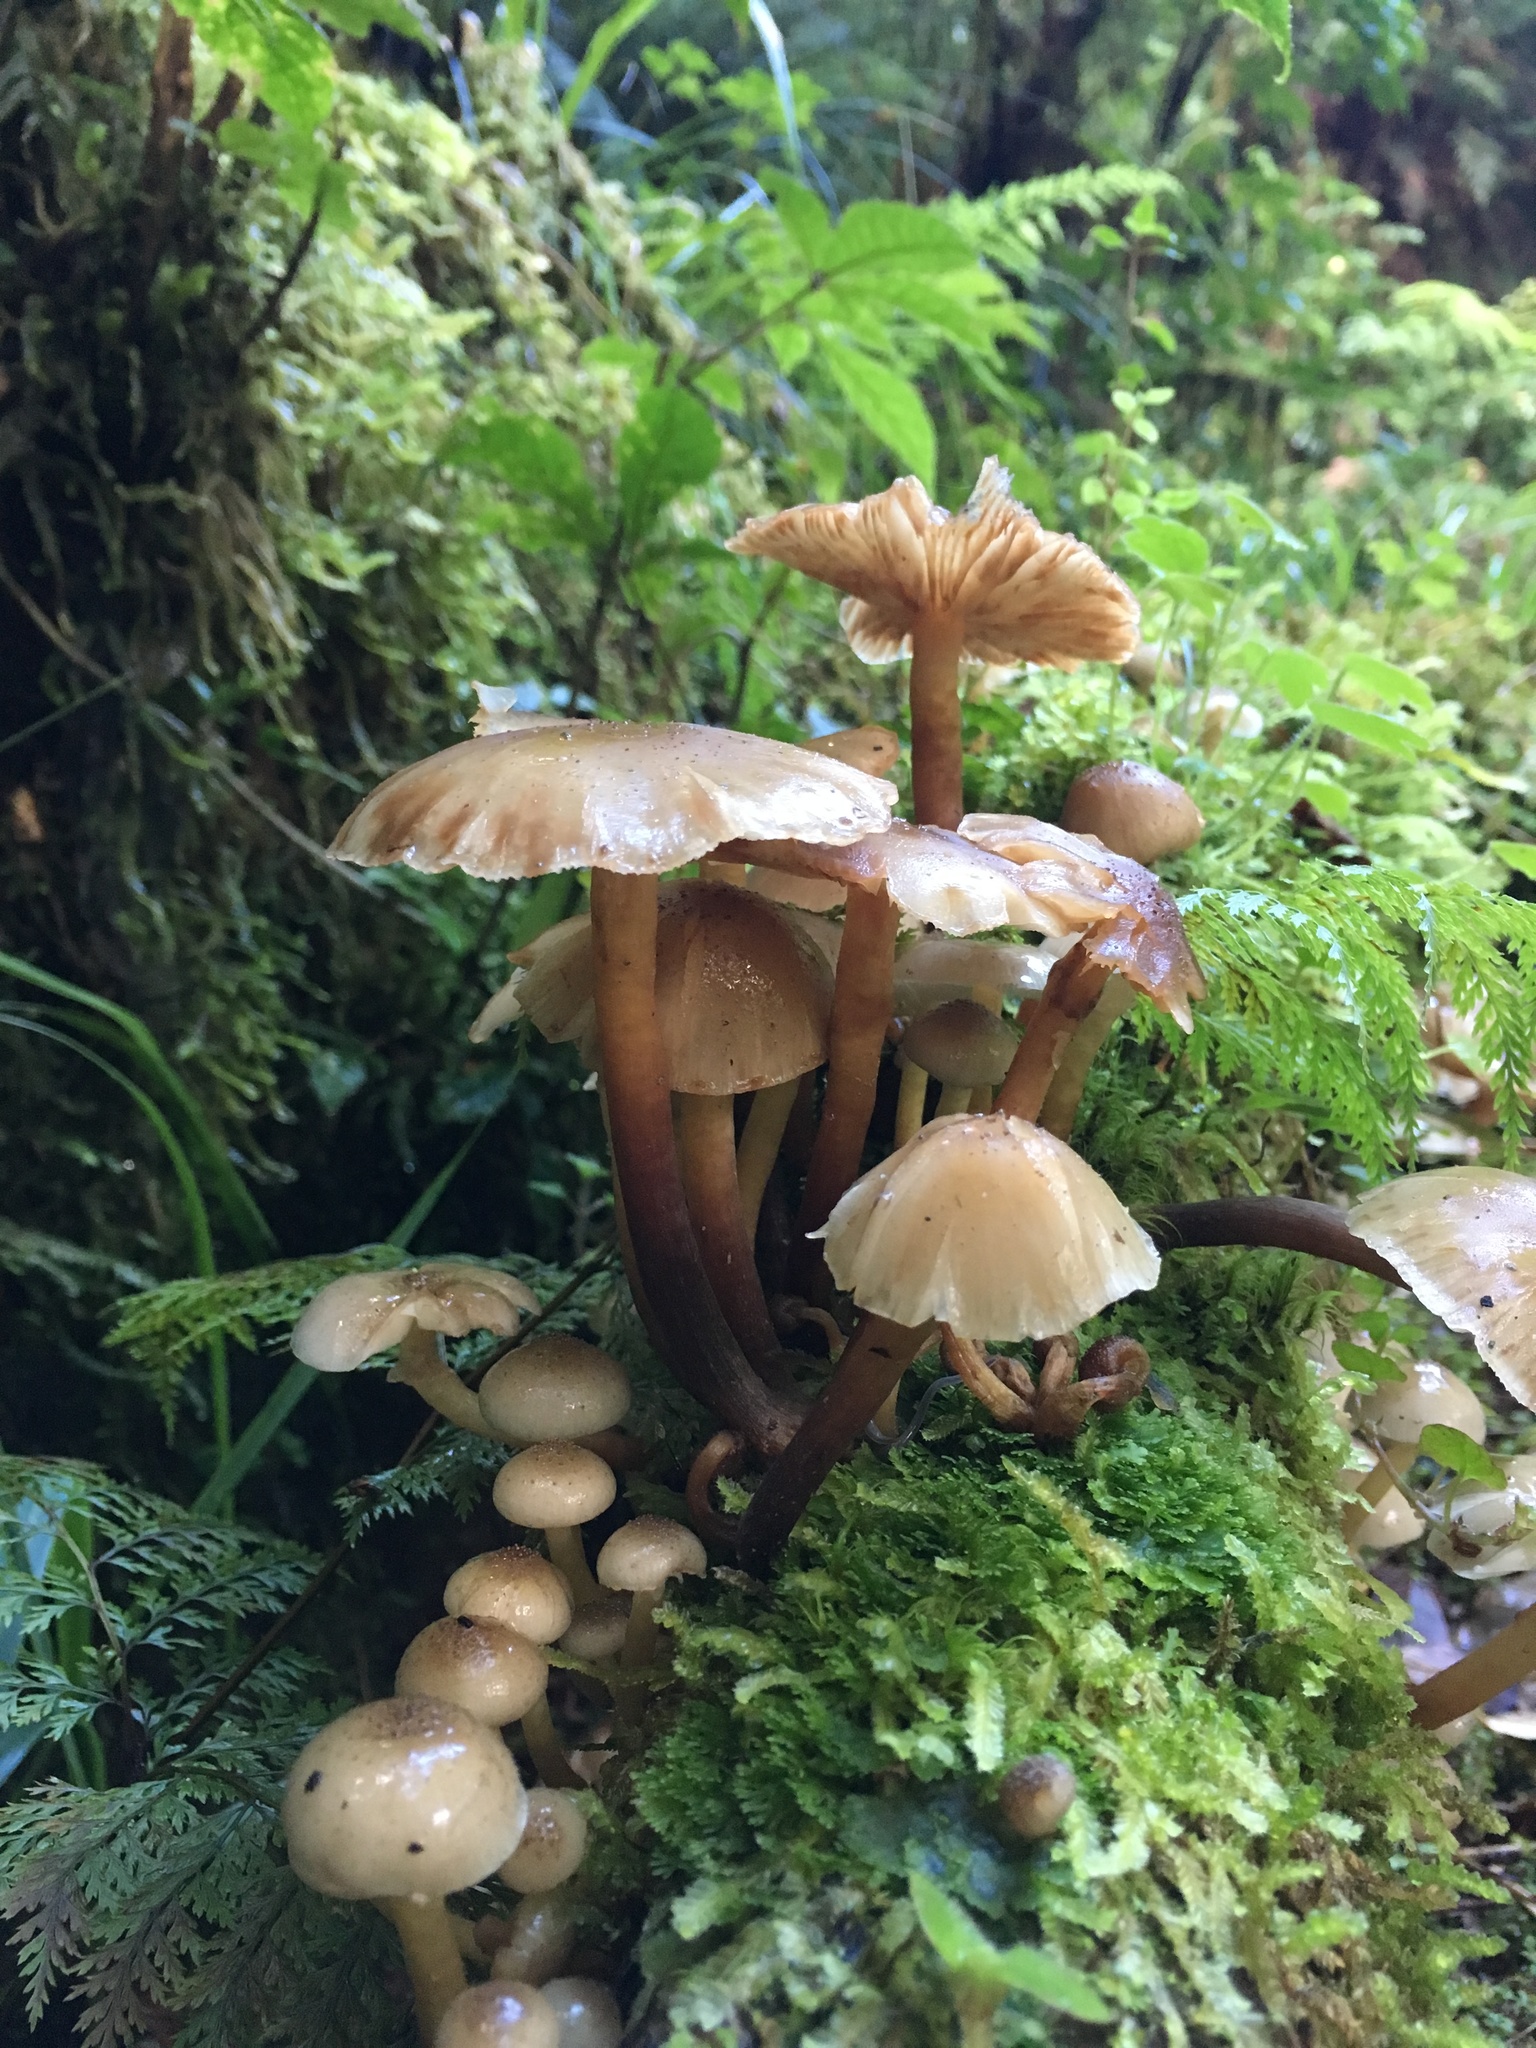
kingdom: Fungi
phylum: Basidiomycota
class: Agaricomycetes
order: Agaricales
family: Physalacriaceae
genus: Armillaria
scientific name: Armillaria novae-zelandiae
